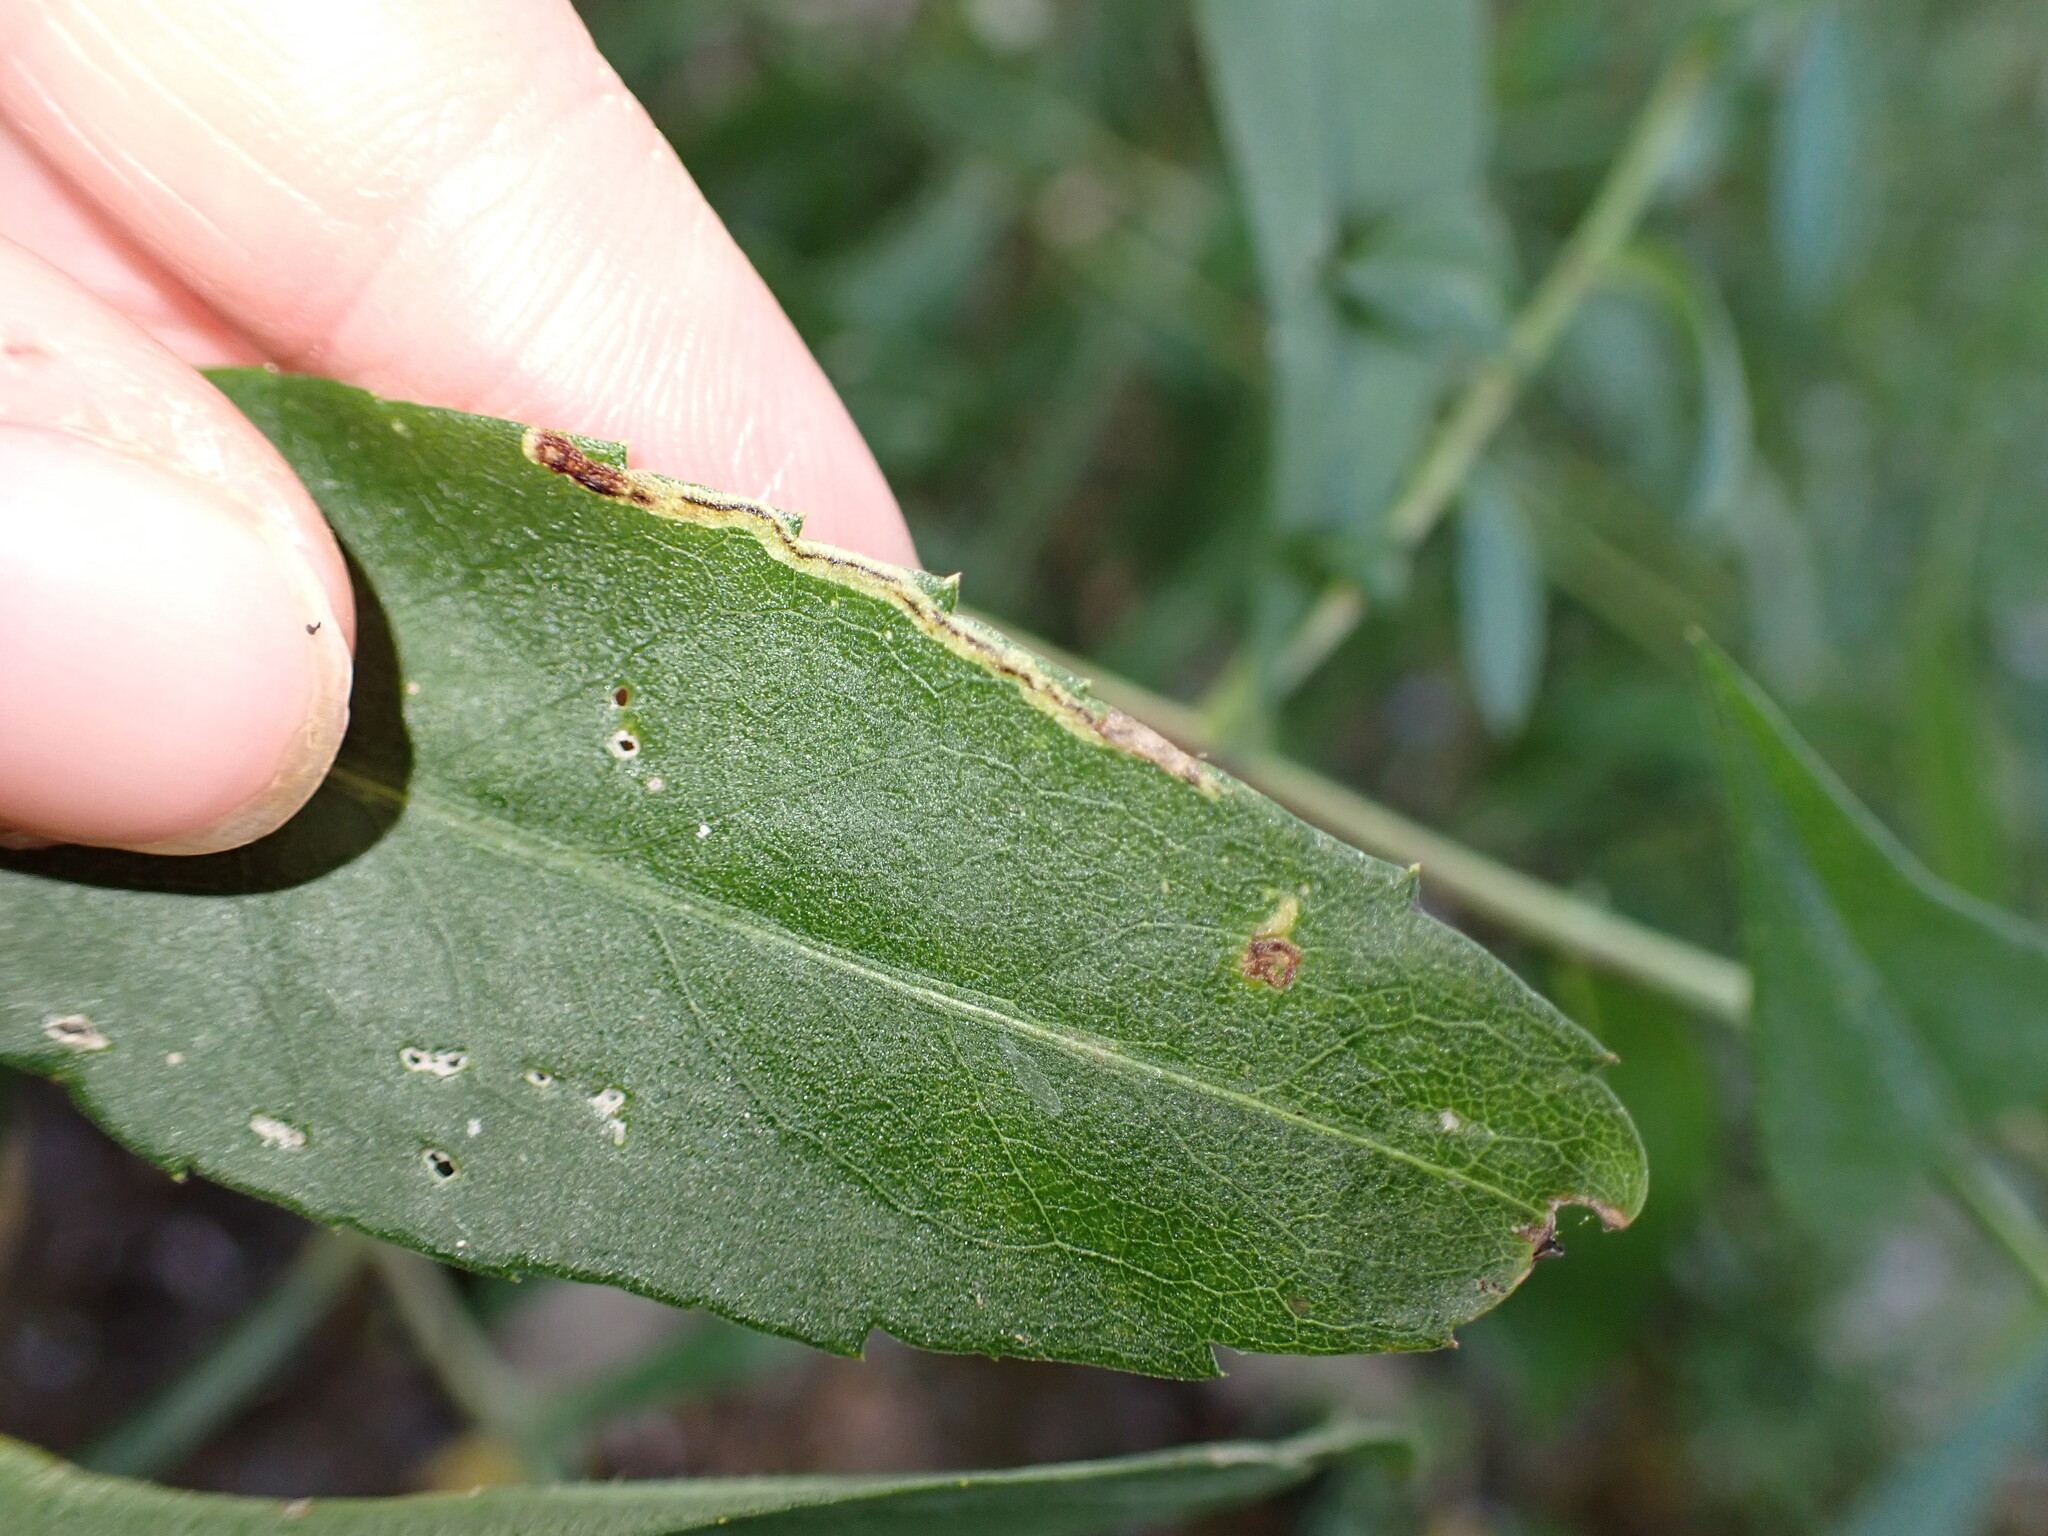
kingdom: Animalia
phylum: Arthropoda
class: Insecta
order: Diptera
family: Agromyzidae
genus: Liriomyza
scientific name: Liriomyza eupatorii
